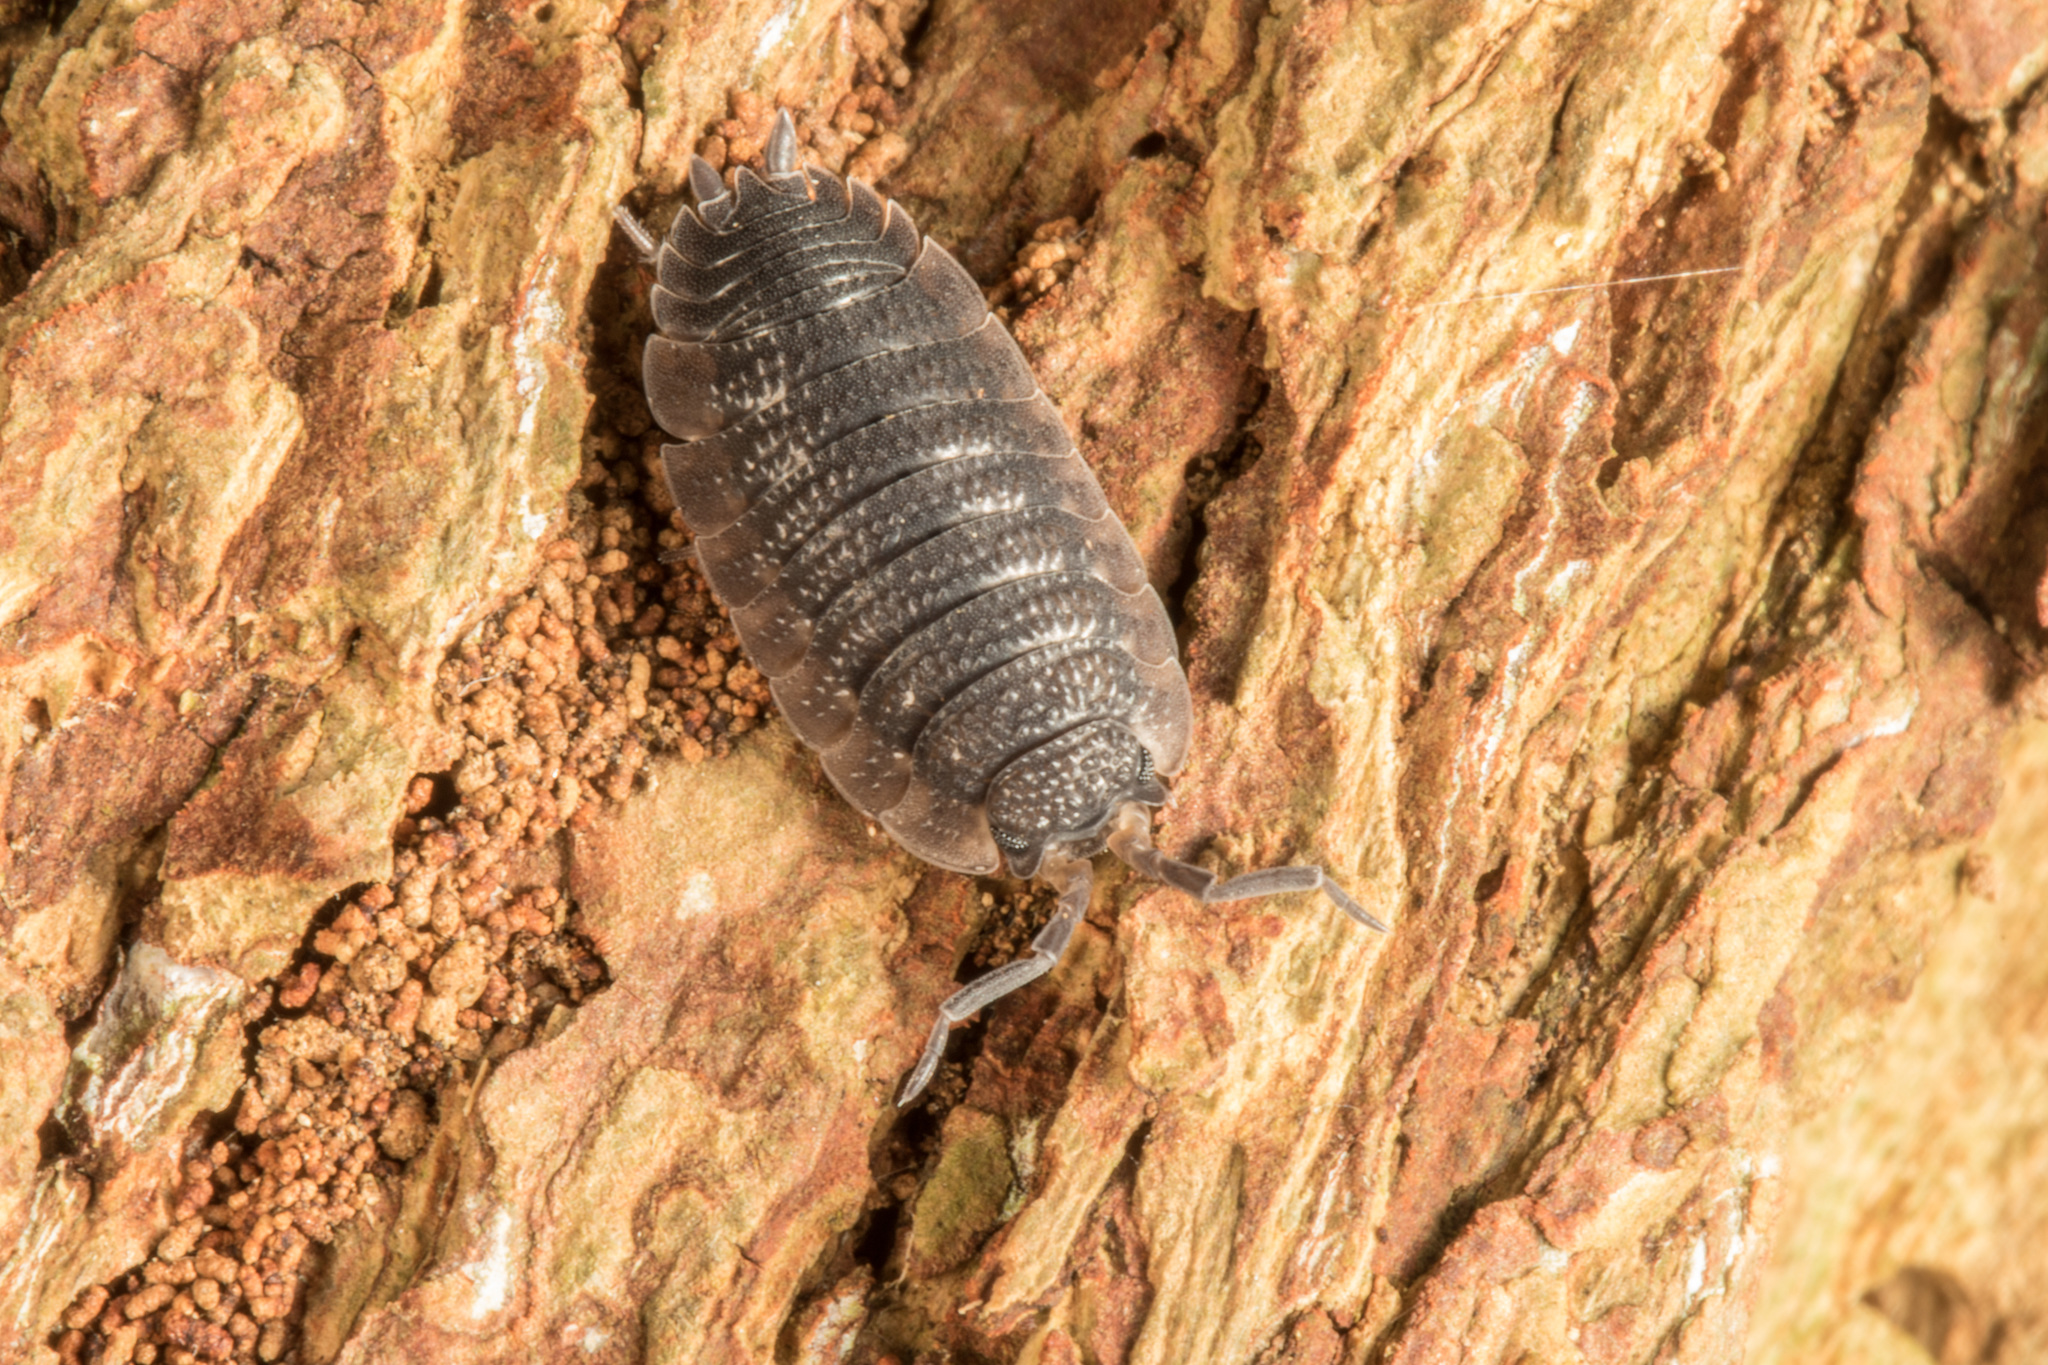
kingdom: Animalia
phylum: Arthropoda
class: Malacostraca
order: Isopoda
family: Porcellionidae
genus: Porcellio
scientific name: Porcellio scaber
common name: Common rough woodlouse
